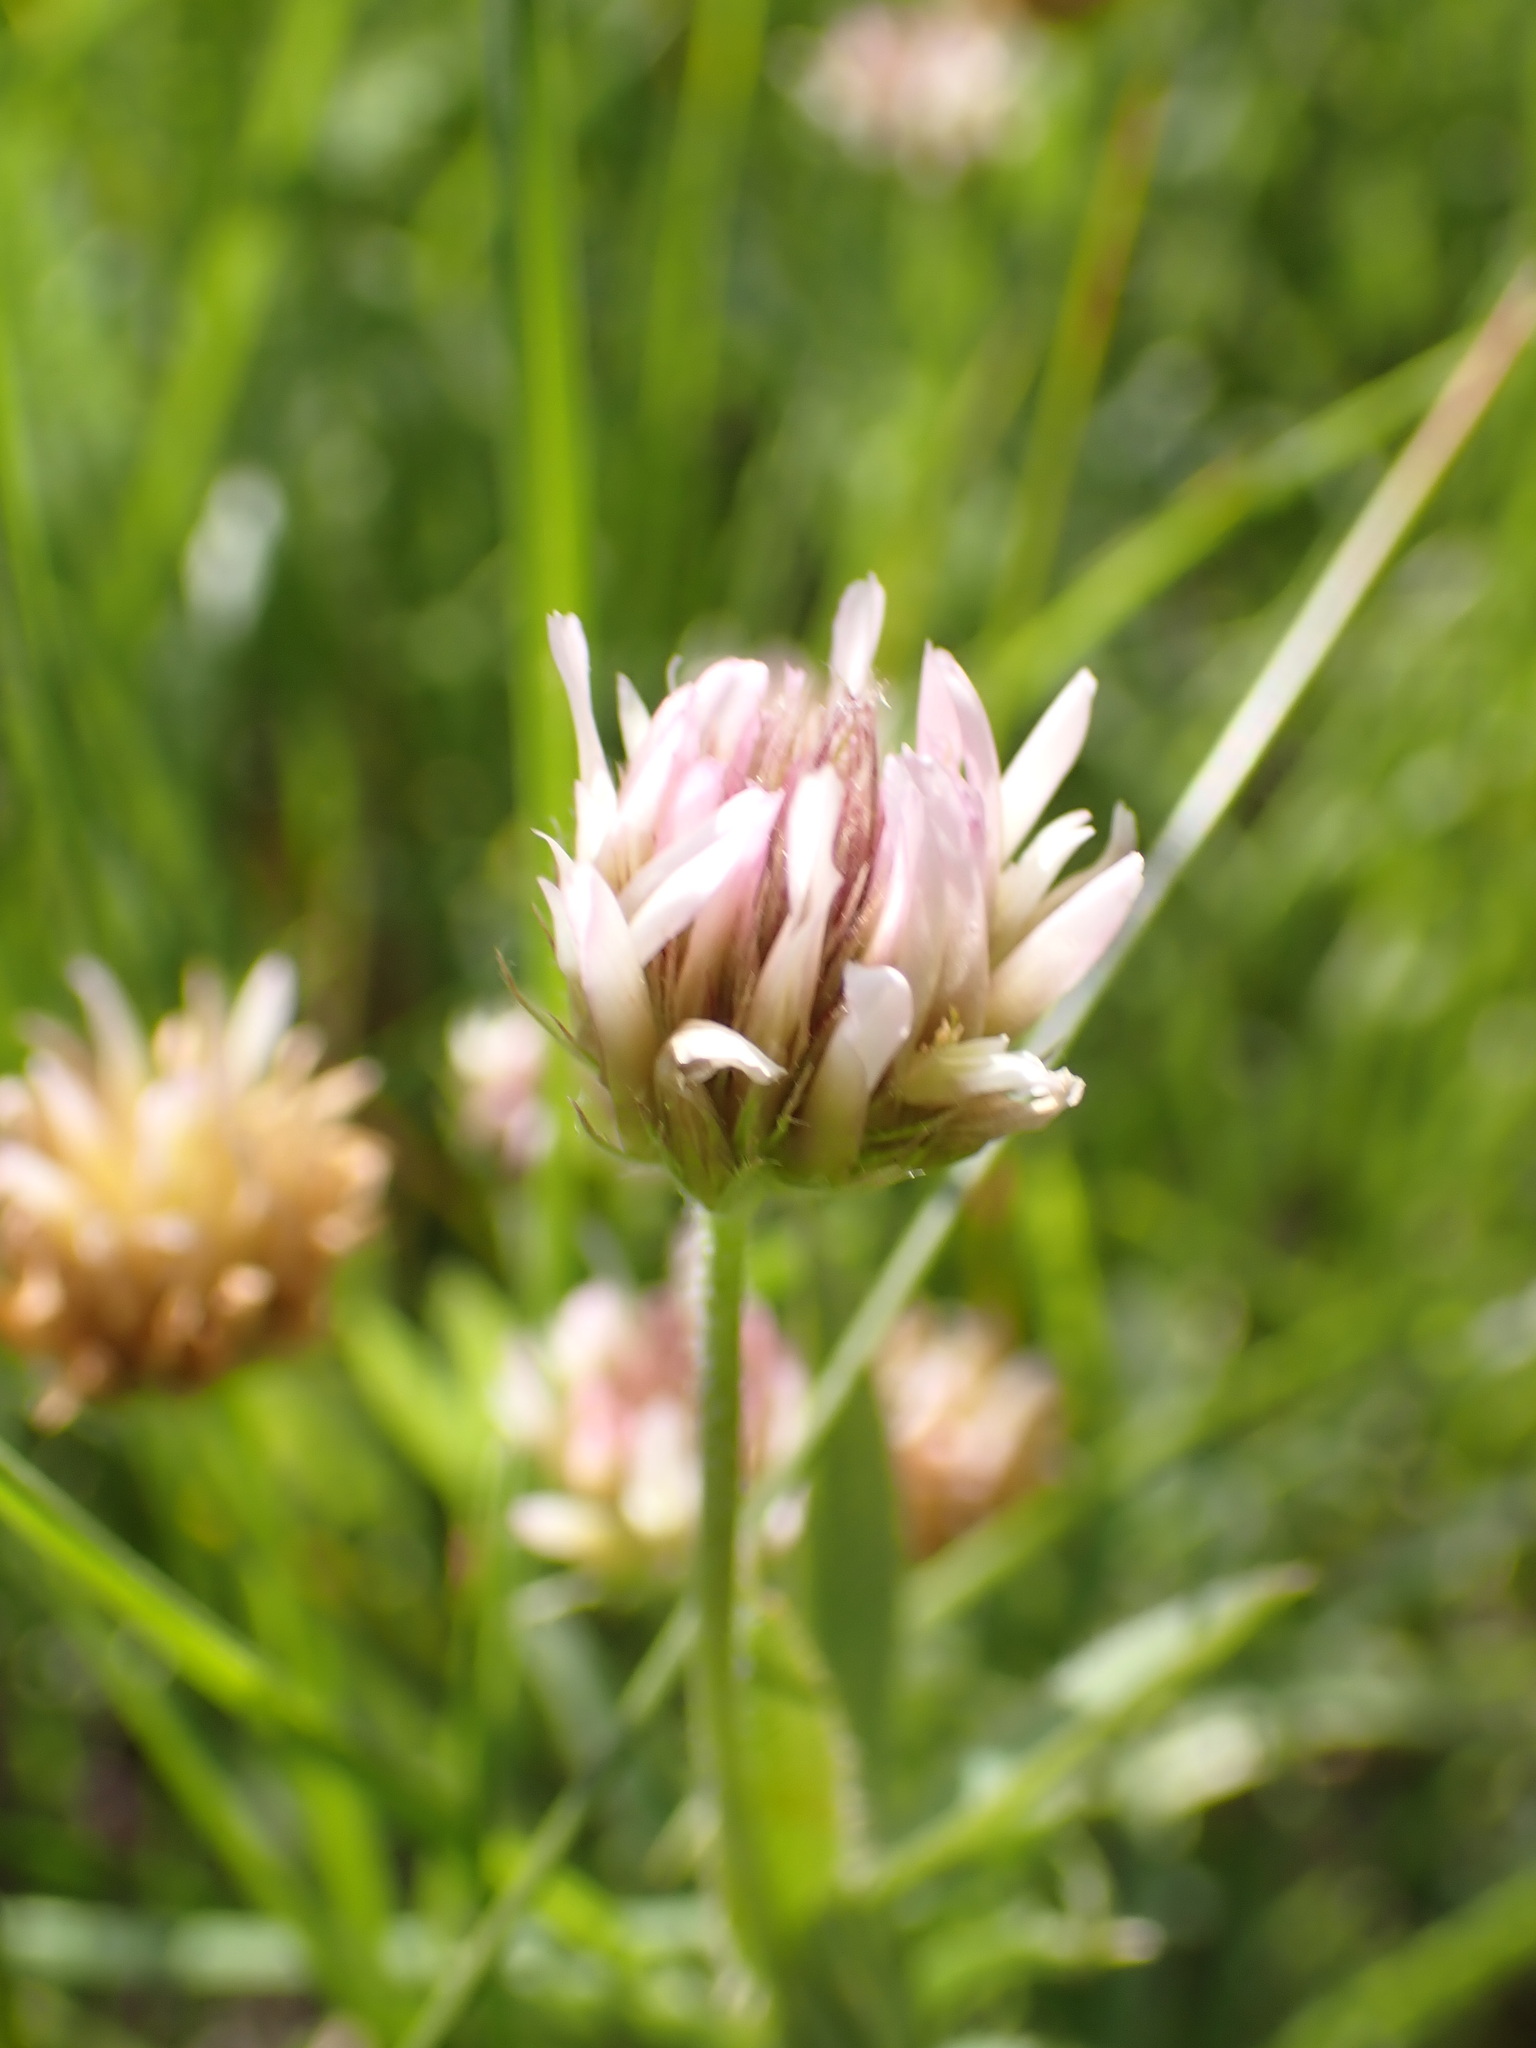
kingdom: Plantae
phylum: Tracheophyta
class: Magnoliopsida
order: Fabales
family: Fabaceae
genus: Trifolium
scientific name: Trifolium longipes
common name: Long-stalk clover
